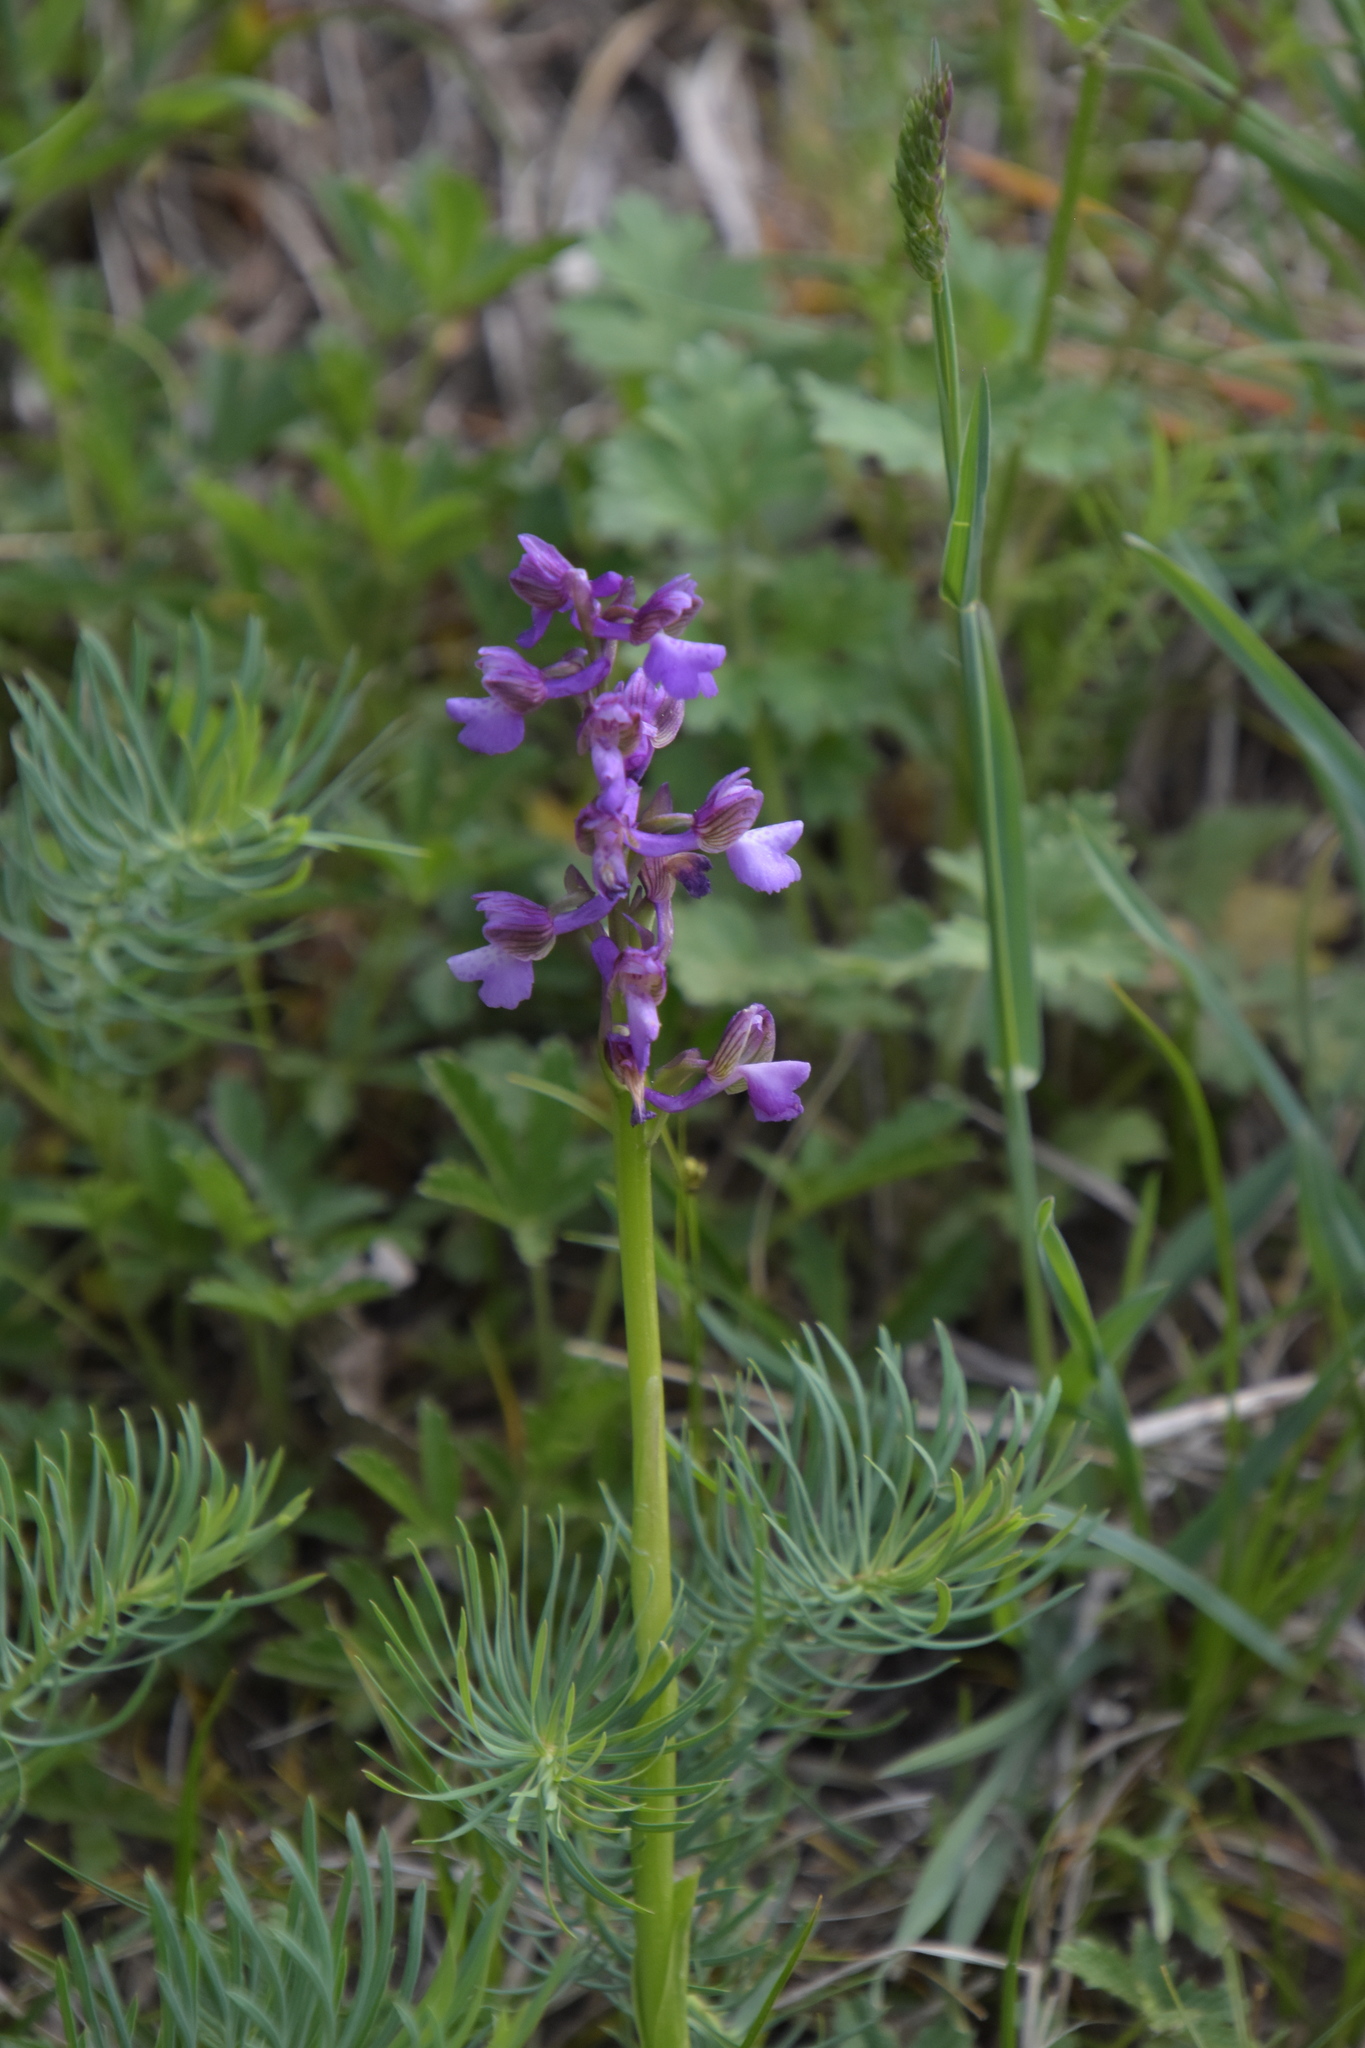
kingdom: Plantae
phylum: Tracheophyta
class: Liliopsida
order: Asparagales
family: Orchidaceae
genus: Anacamptis
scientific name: Anacamptis morio
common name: Green-winged orchid
